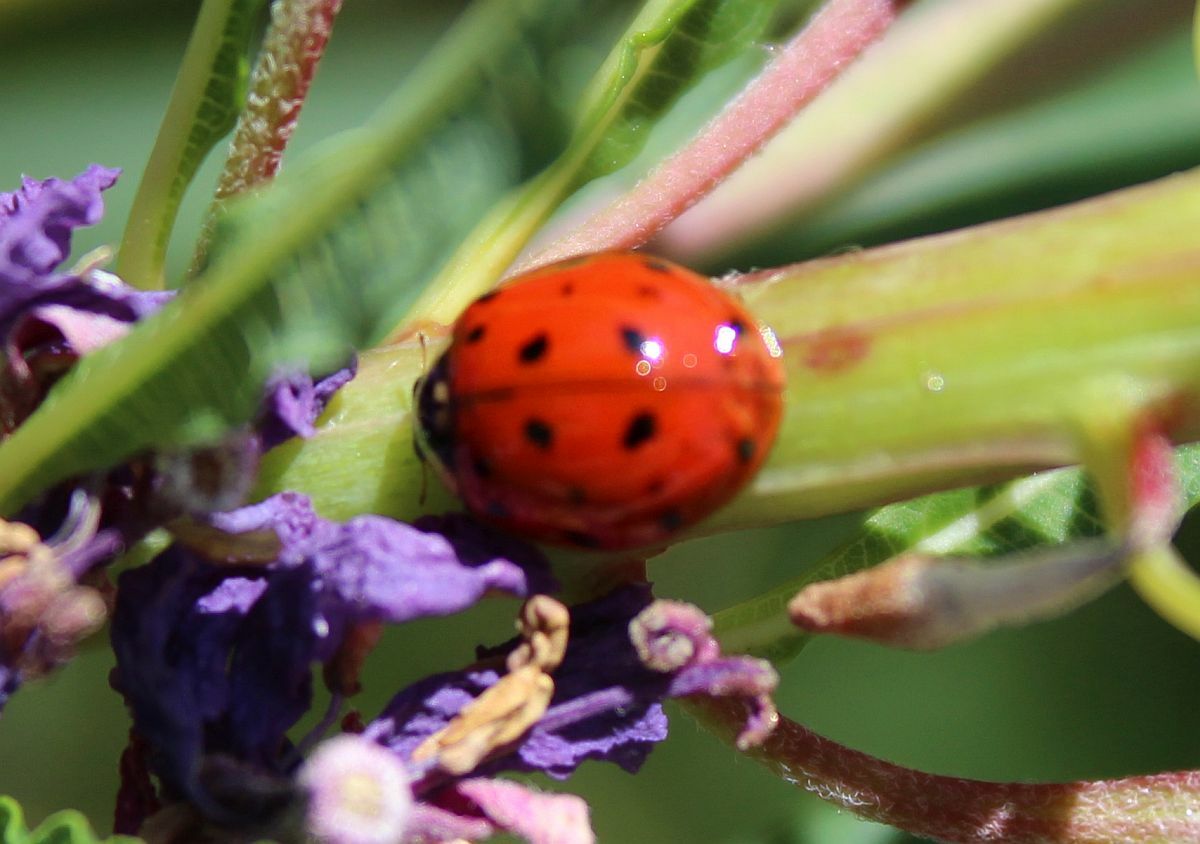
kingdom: Animalia
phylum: Arthropoda
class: Insecta
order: Coleoptera
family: Coccinellidae
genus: Harmonia
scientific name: Harmonia axyridis
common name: Harlequin ladybird
